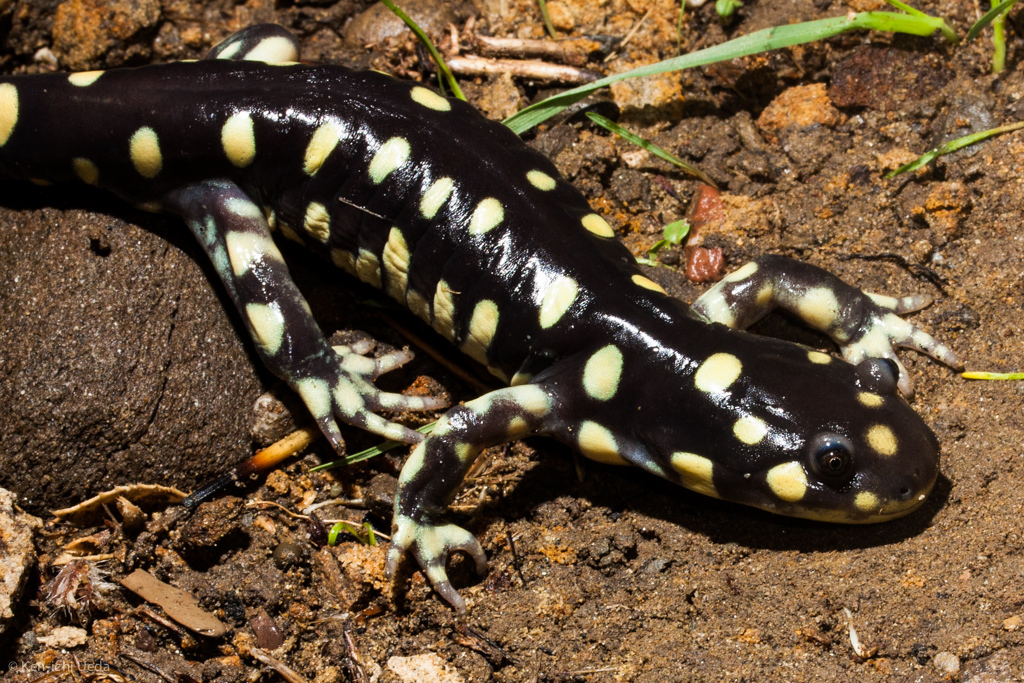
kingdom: Animalia
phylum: Chordata
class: Amphibia
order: Caudata
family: Ambystomatidae
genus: Ambystoma
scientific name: Ambystoma californiense
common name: California tiger salamander
